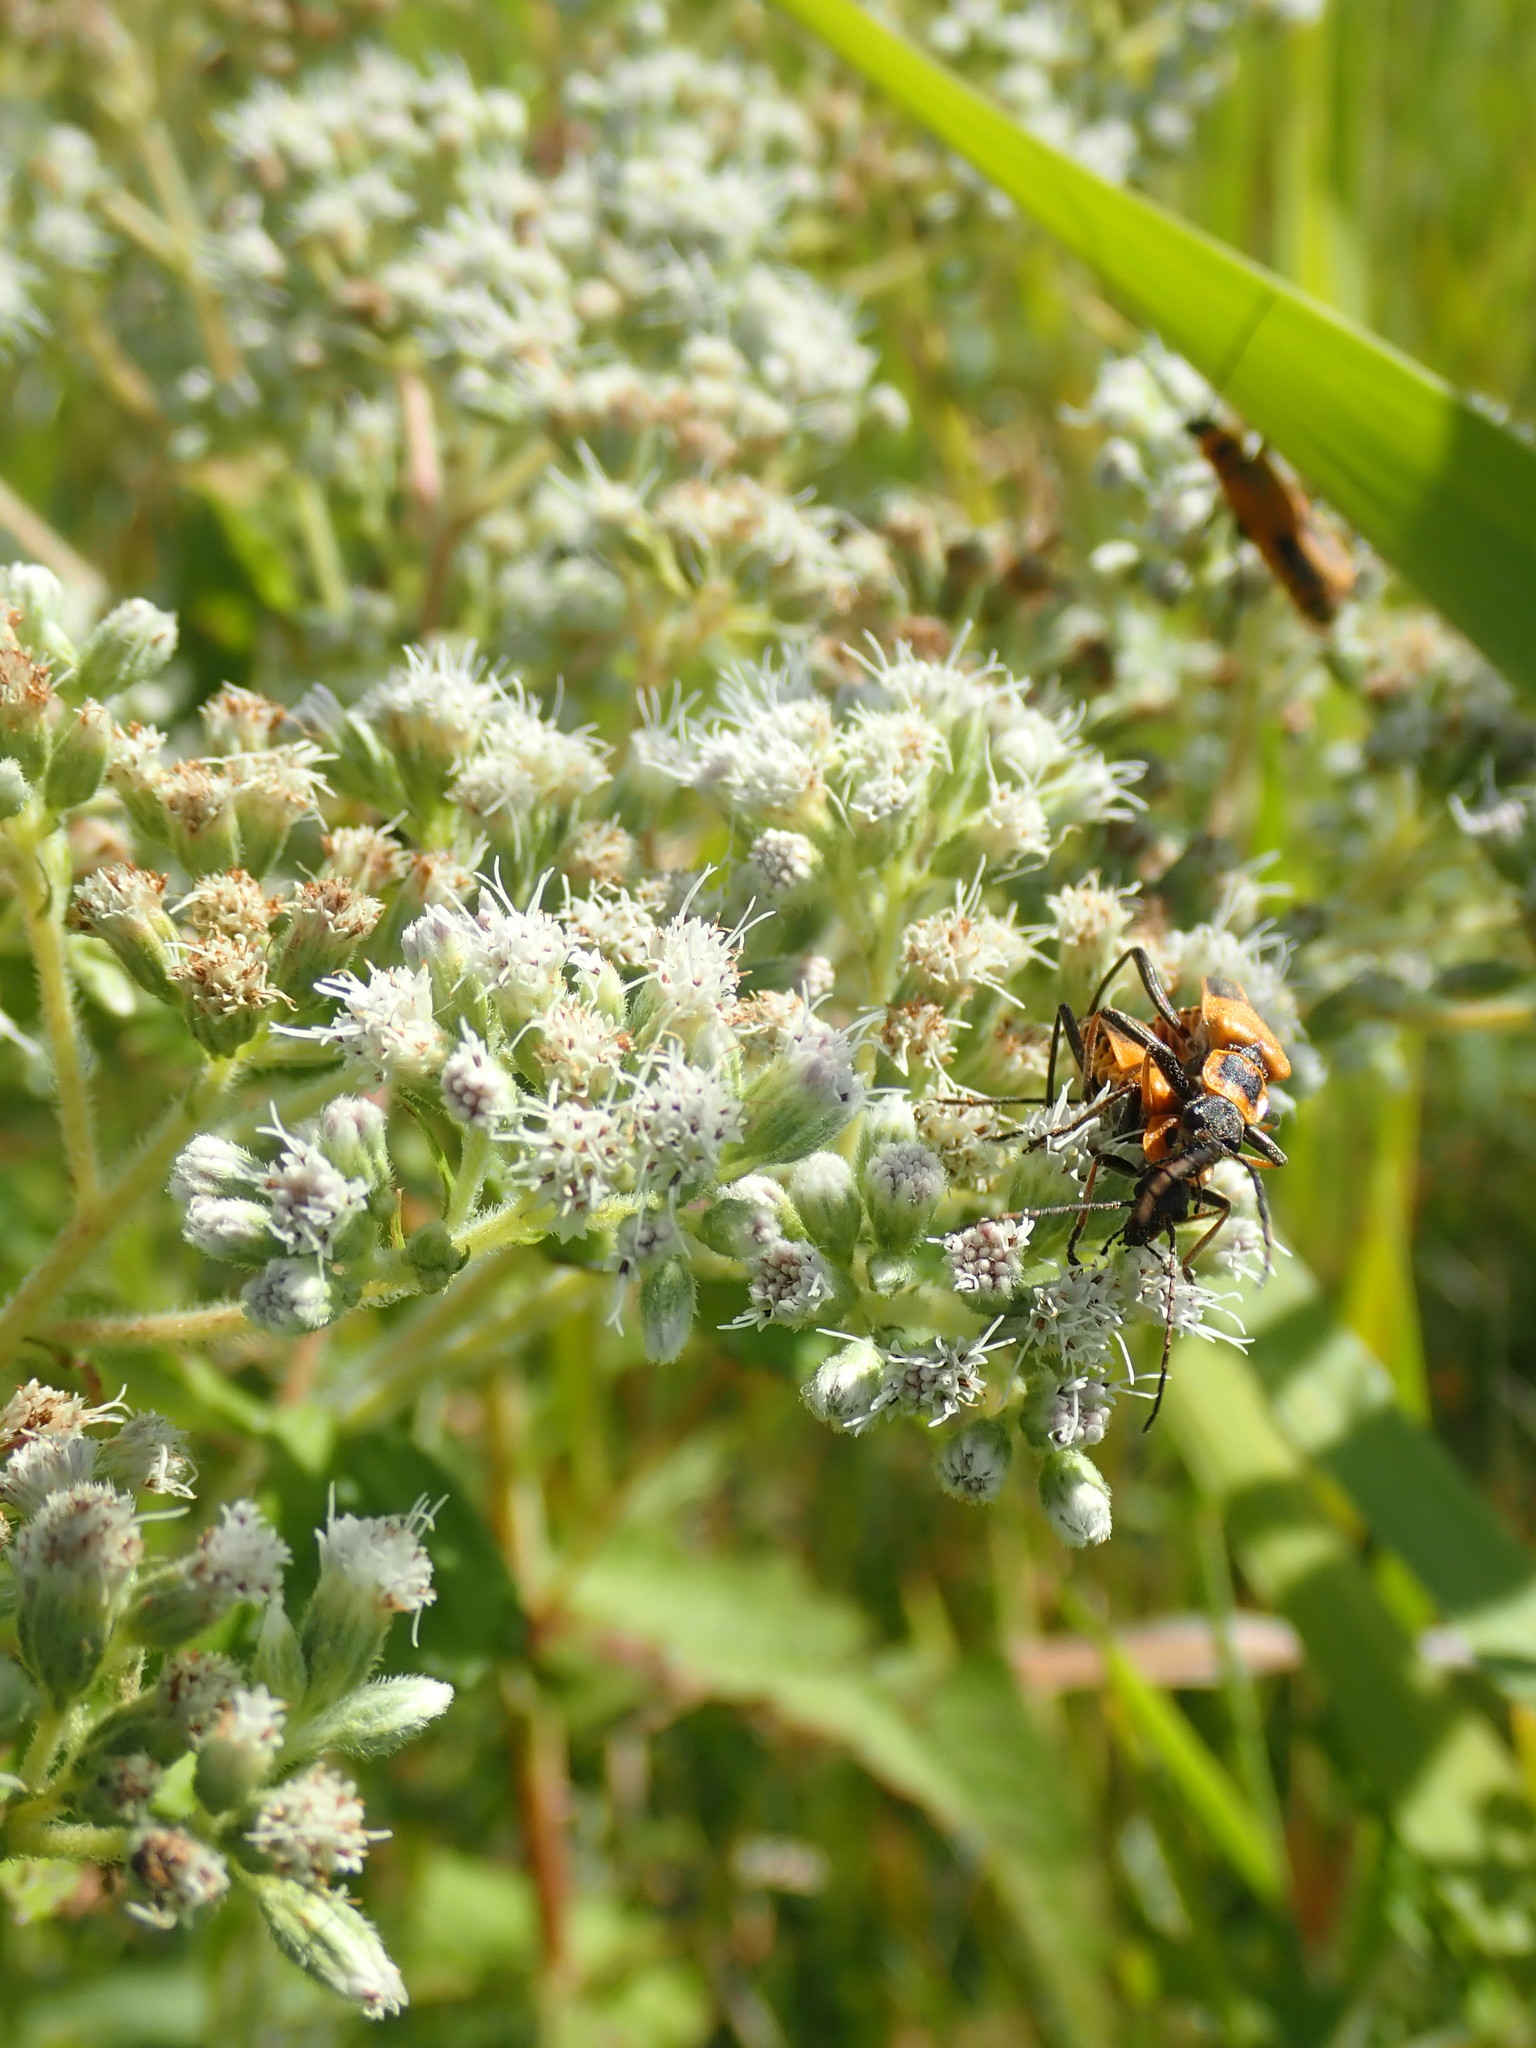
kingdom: Animalia
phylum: Arthropoda
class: Insecta
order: Coleoptera
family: Cantharidae
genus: Chauliognathus
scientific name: Chauliognathus pensylvanicus
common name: Goldenrod soldier beetle
